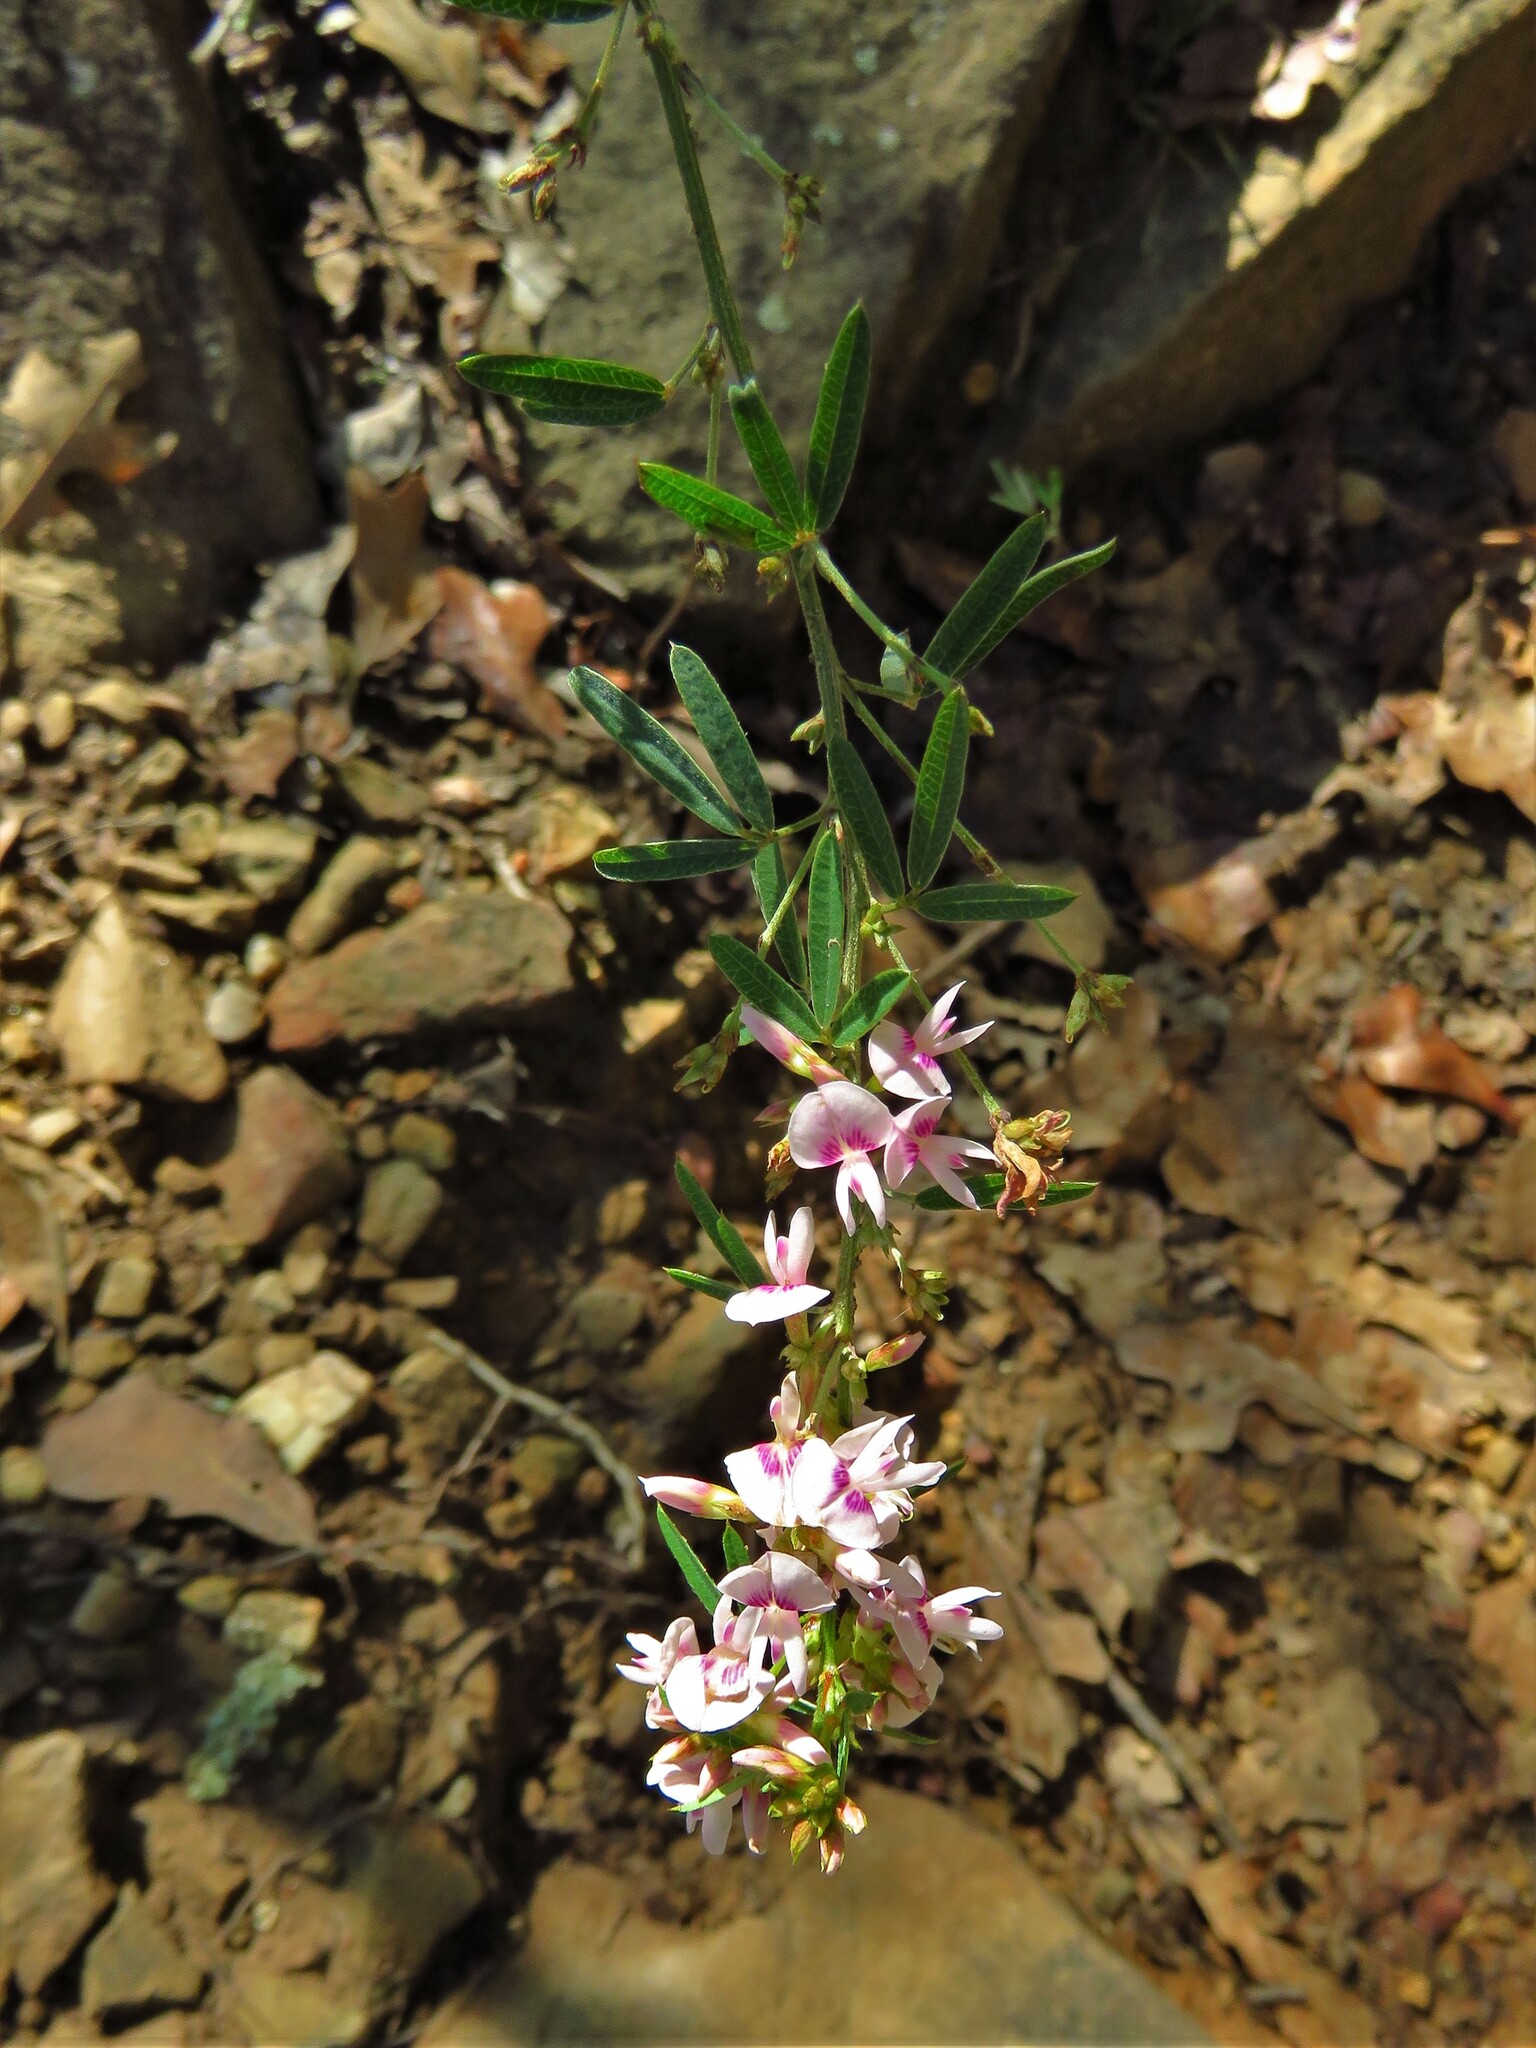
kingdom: Plantae
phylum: Tracheophyta
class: Magnoliopsida
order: Fabales
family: Fabaceae
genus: Lespedeza
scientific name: Lespedeza cuneata
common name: Chinese bush-clover
